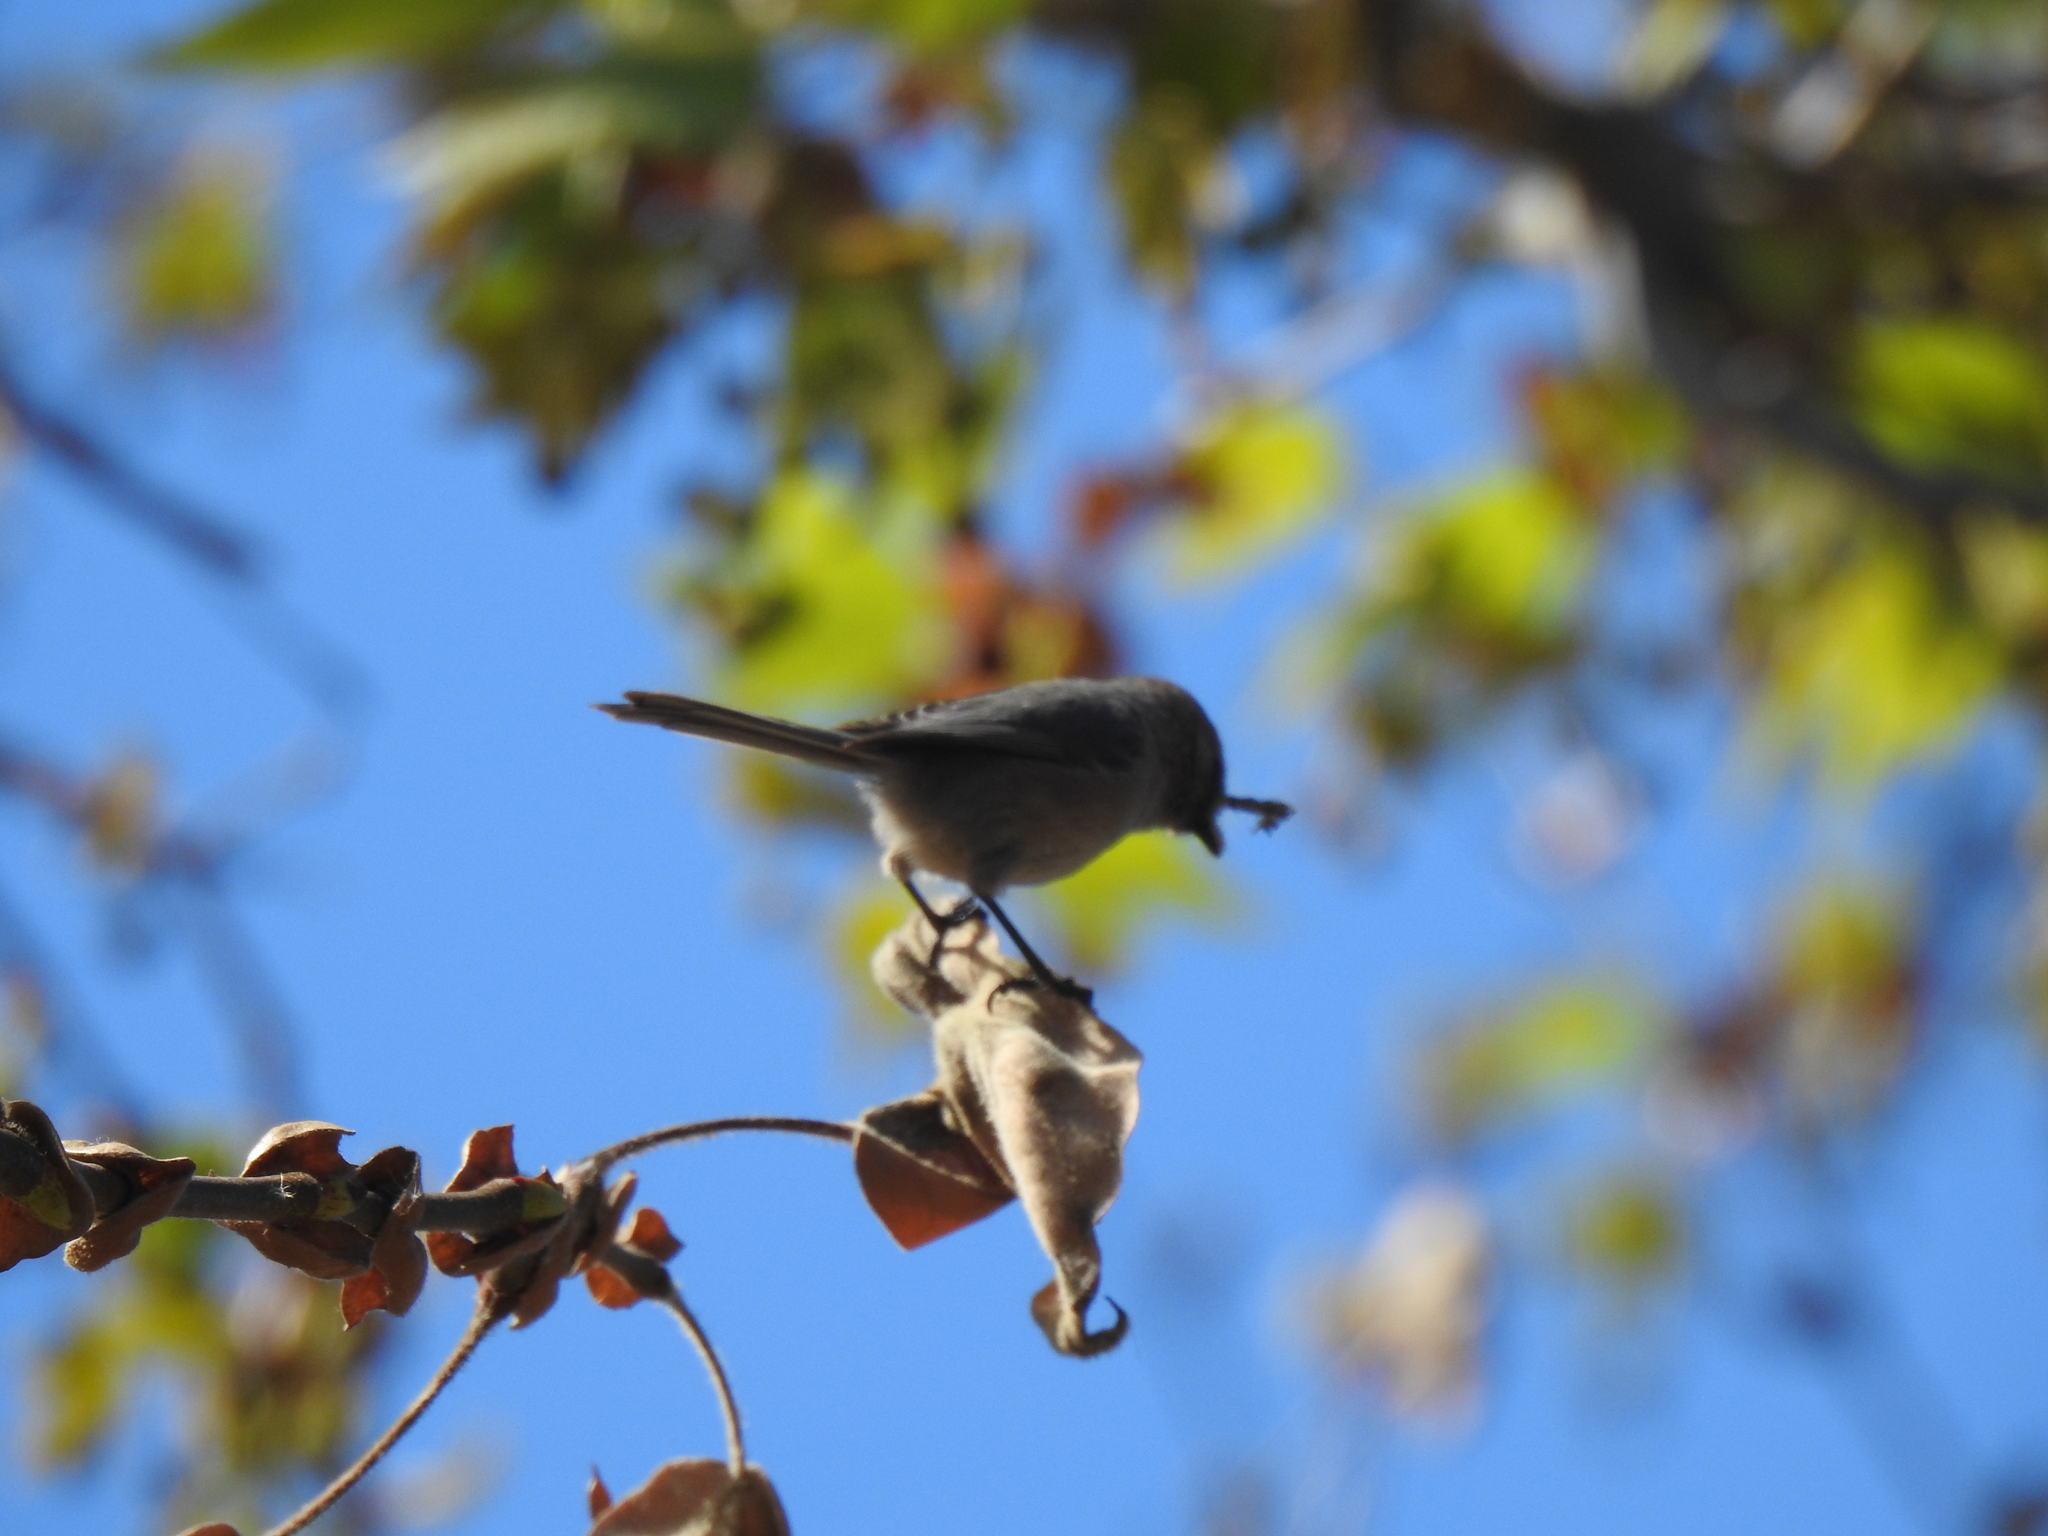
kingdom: Animalia
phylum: Chordata
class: Aves
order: Passeriformes
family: Aegithalidae
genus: Psaltriparus
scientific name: Psaltriparus minimus
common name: American bushtit
